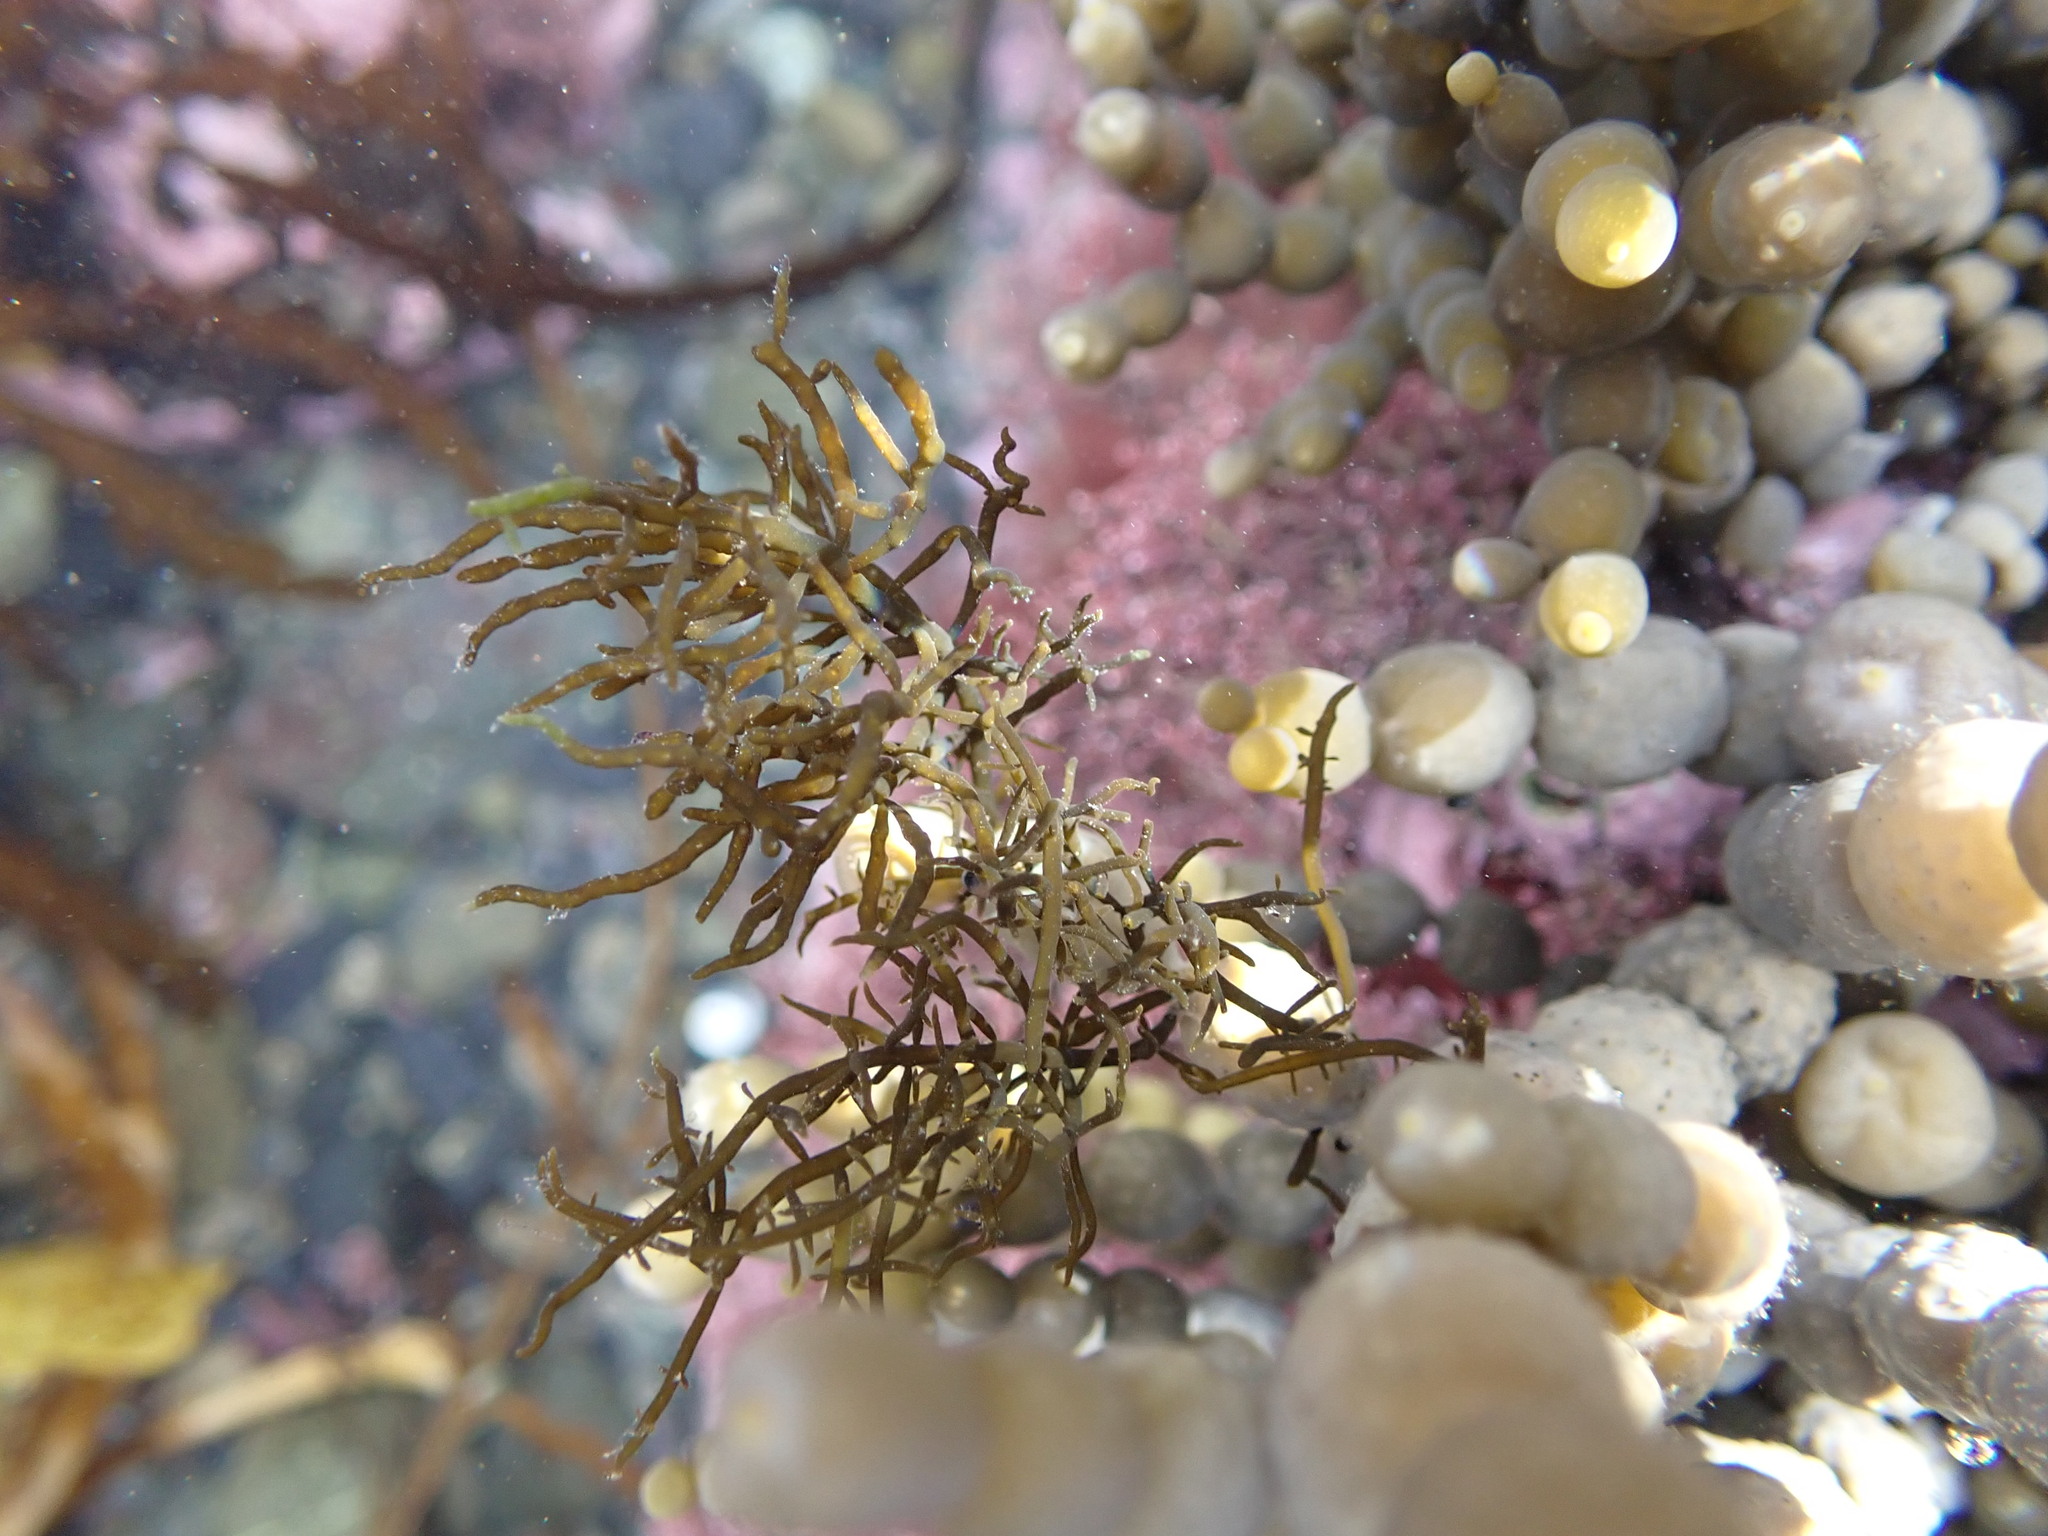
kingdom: Chromista
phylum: Ochrophyta
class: Phaeophyceae
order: Fucales
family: Notheiaceae
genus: Notheia
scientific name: Notheia anomala
